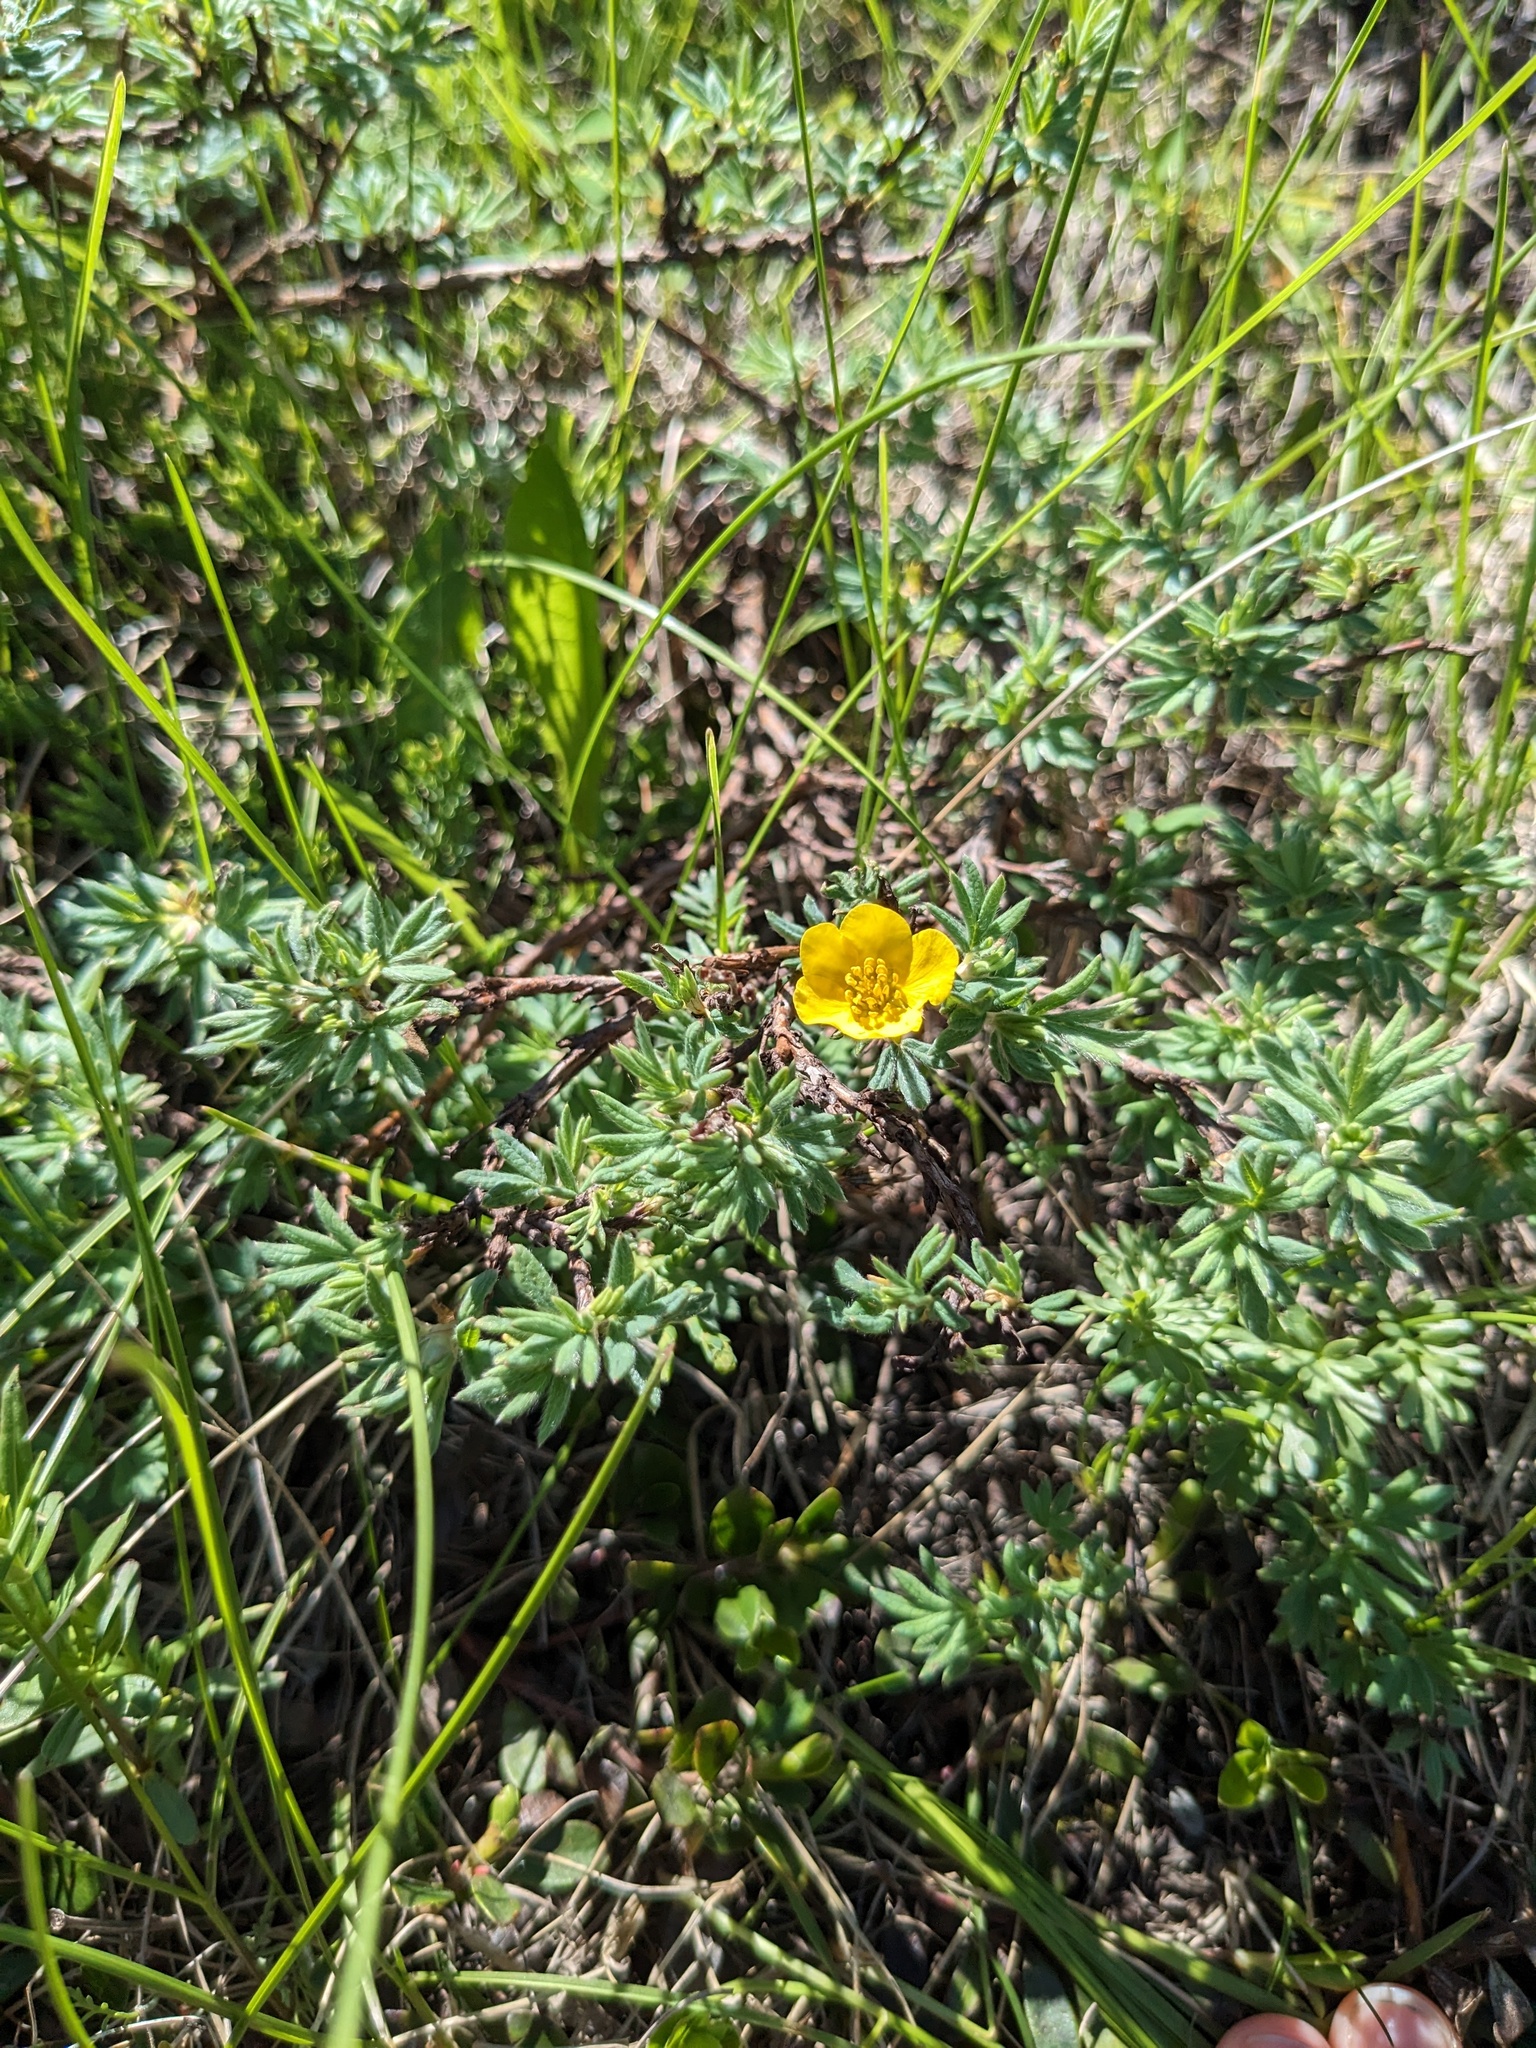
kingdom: Plantae
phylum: Tracheophyta
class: Magnoliopsida
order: Rosales
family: Rosaceae
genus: Dasiphora
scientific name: Dasiphora fruticosa
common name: Shrubby cinquefoil
